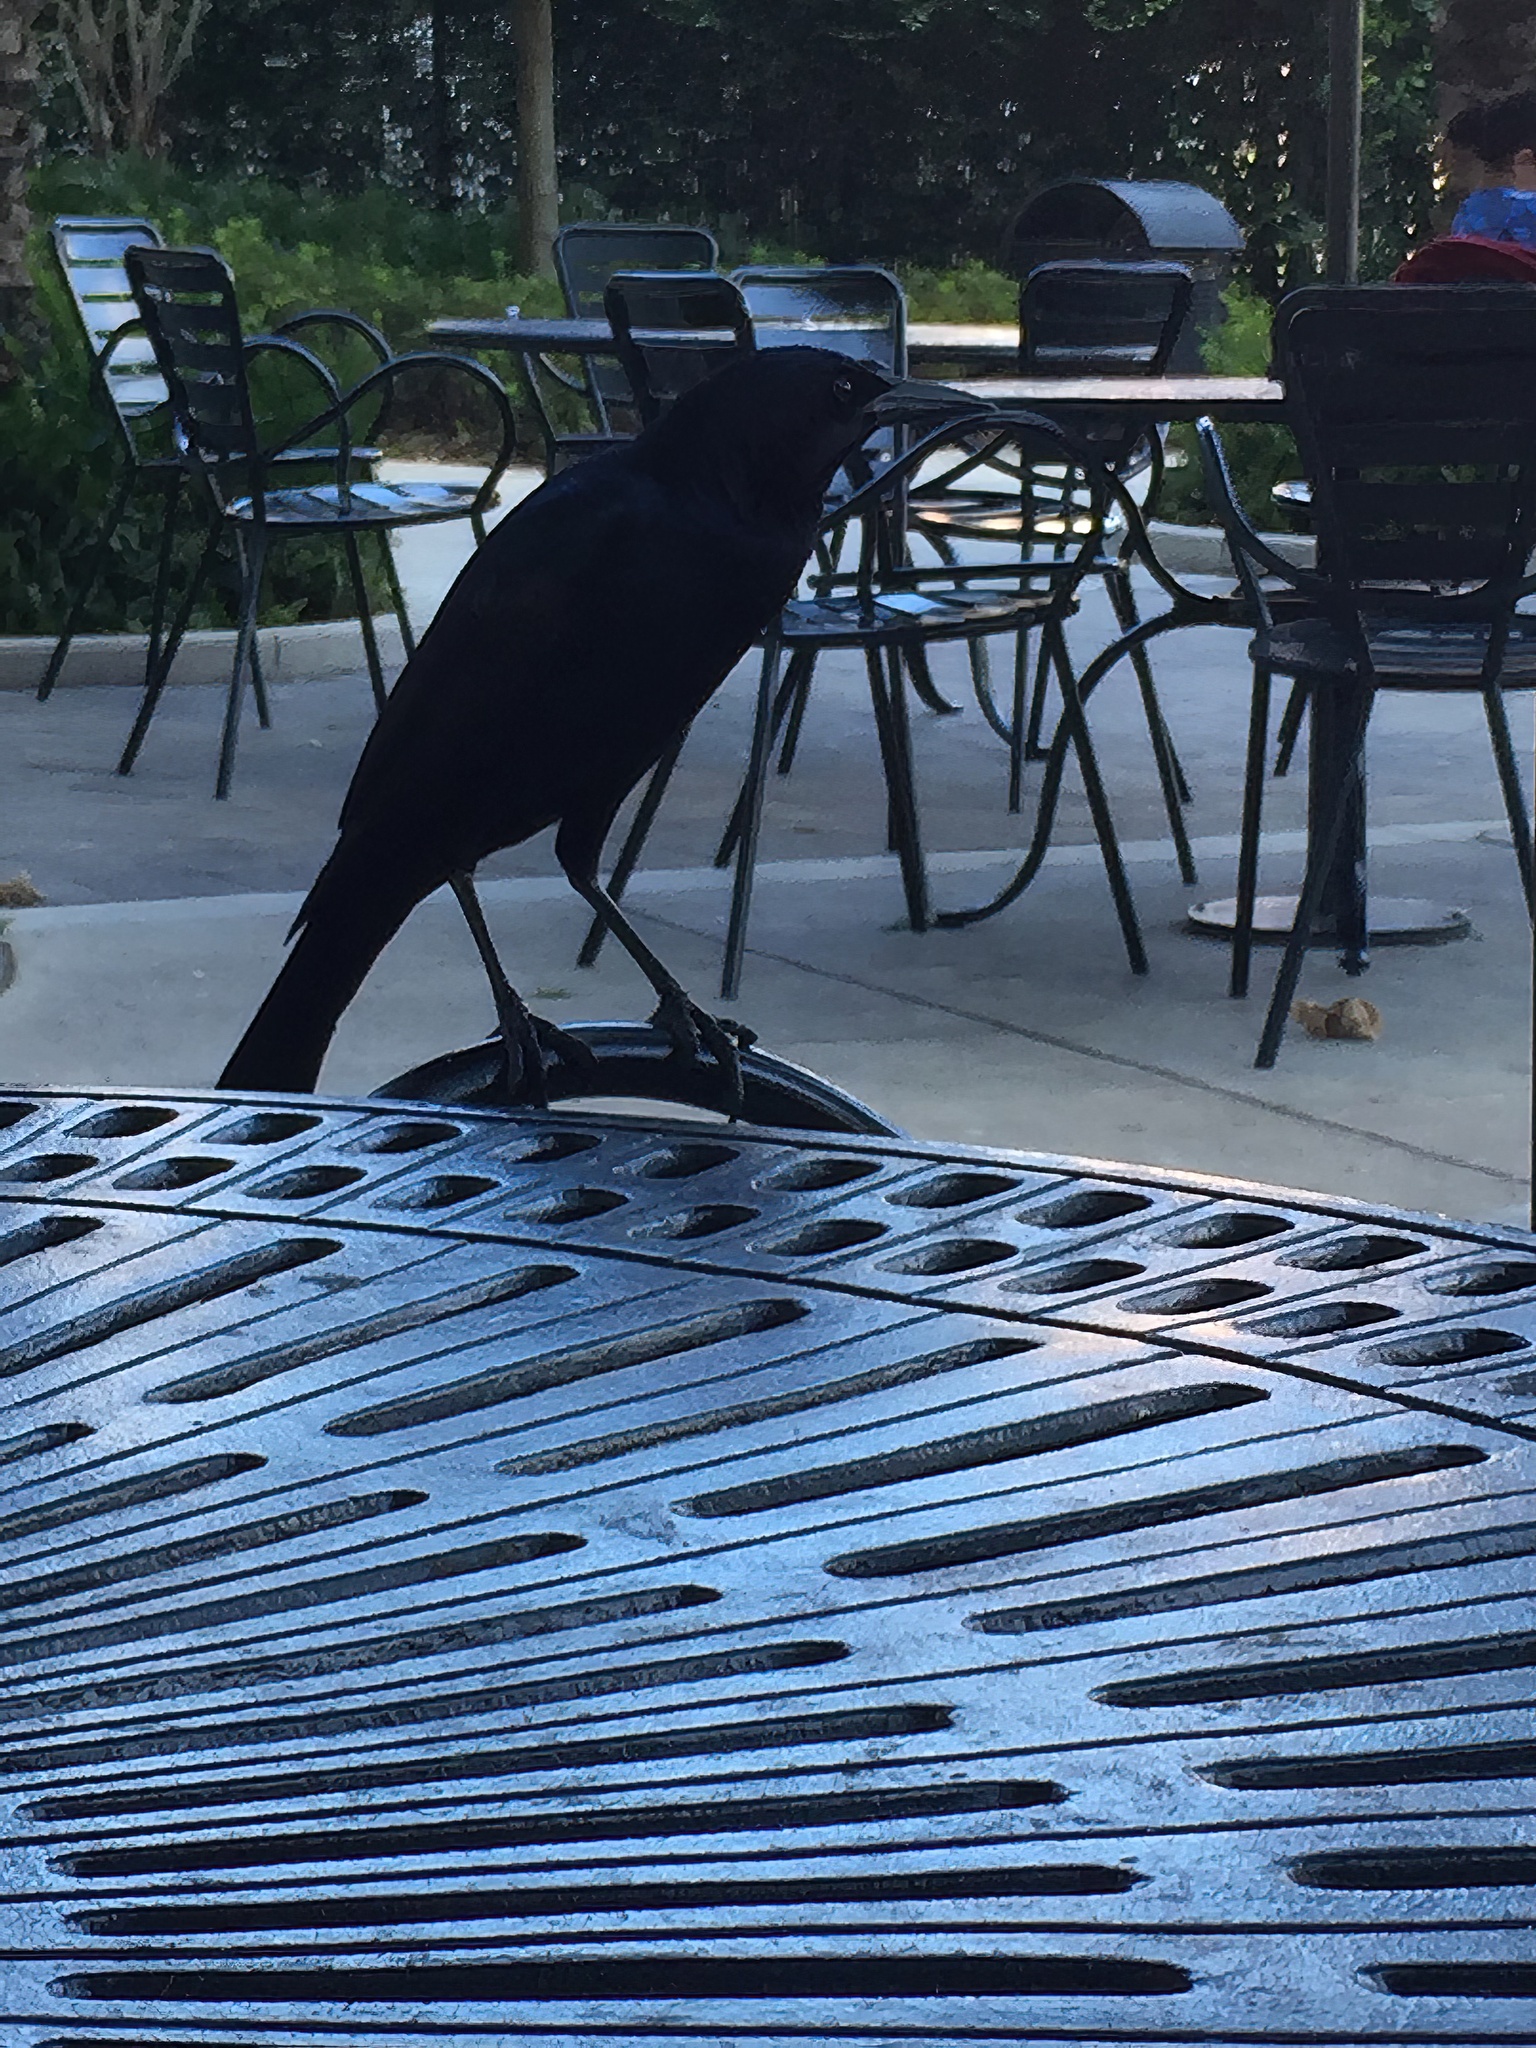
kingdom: Animalia
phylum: Chordata
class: Aves
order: Passeriformes
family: Icteridae
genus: Quiscalus
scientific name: Quiscalus major
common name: Boat-tailed grackle
